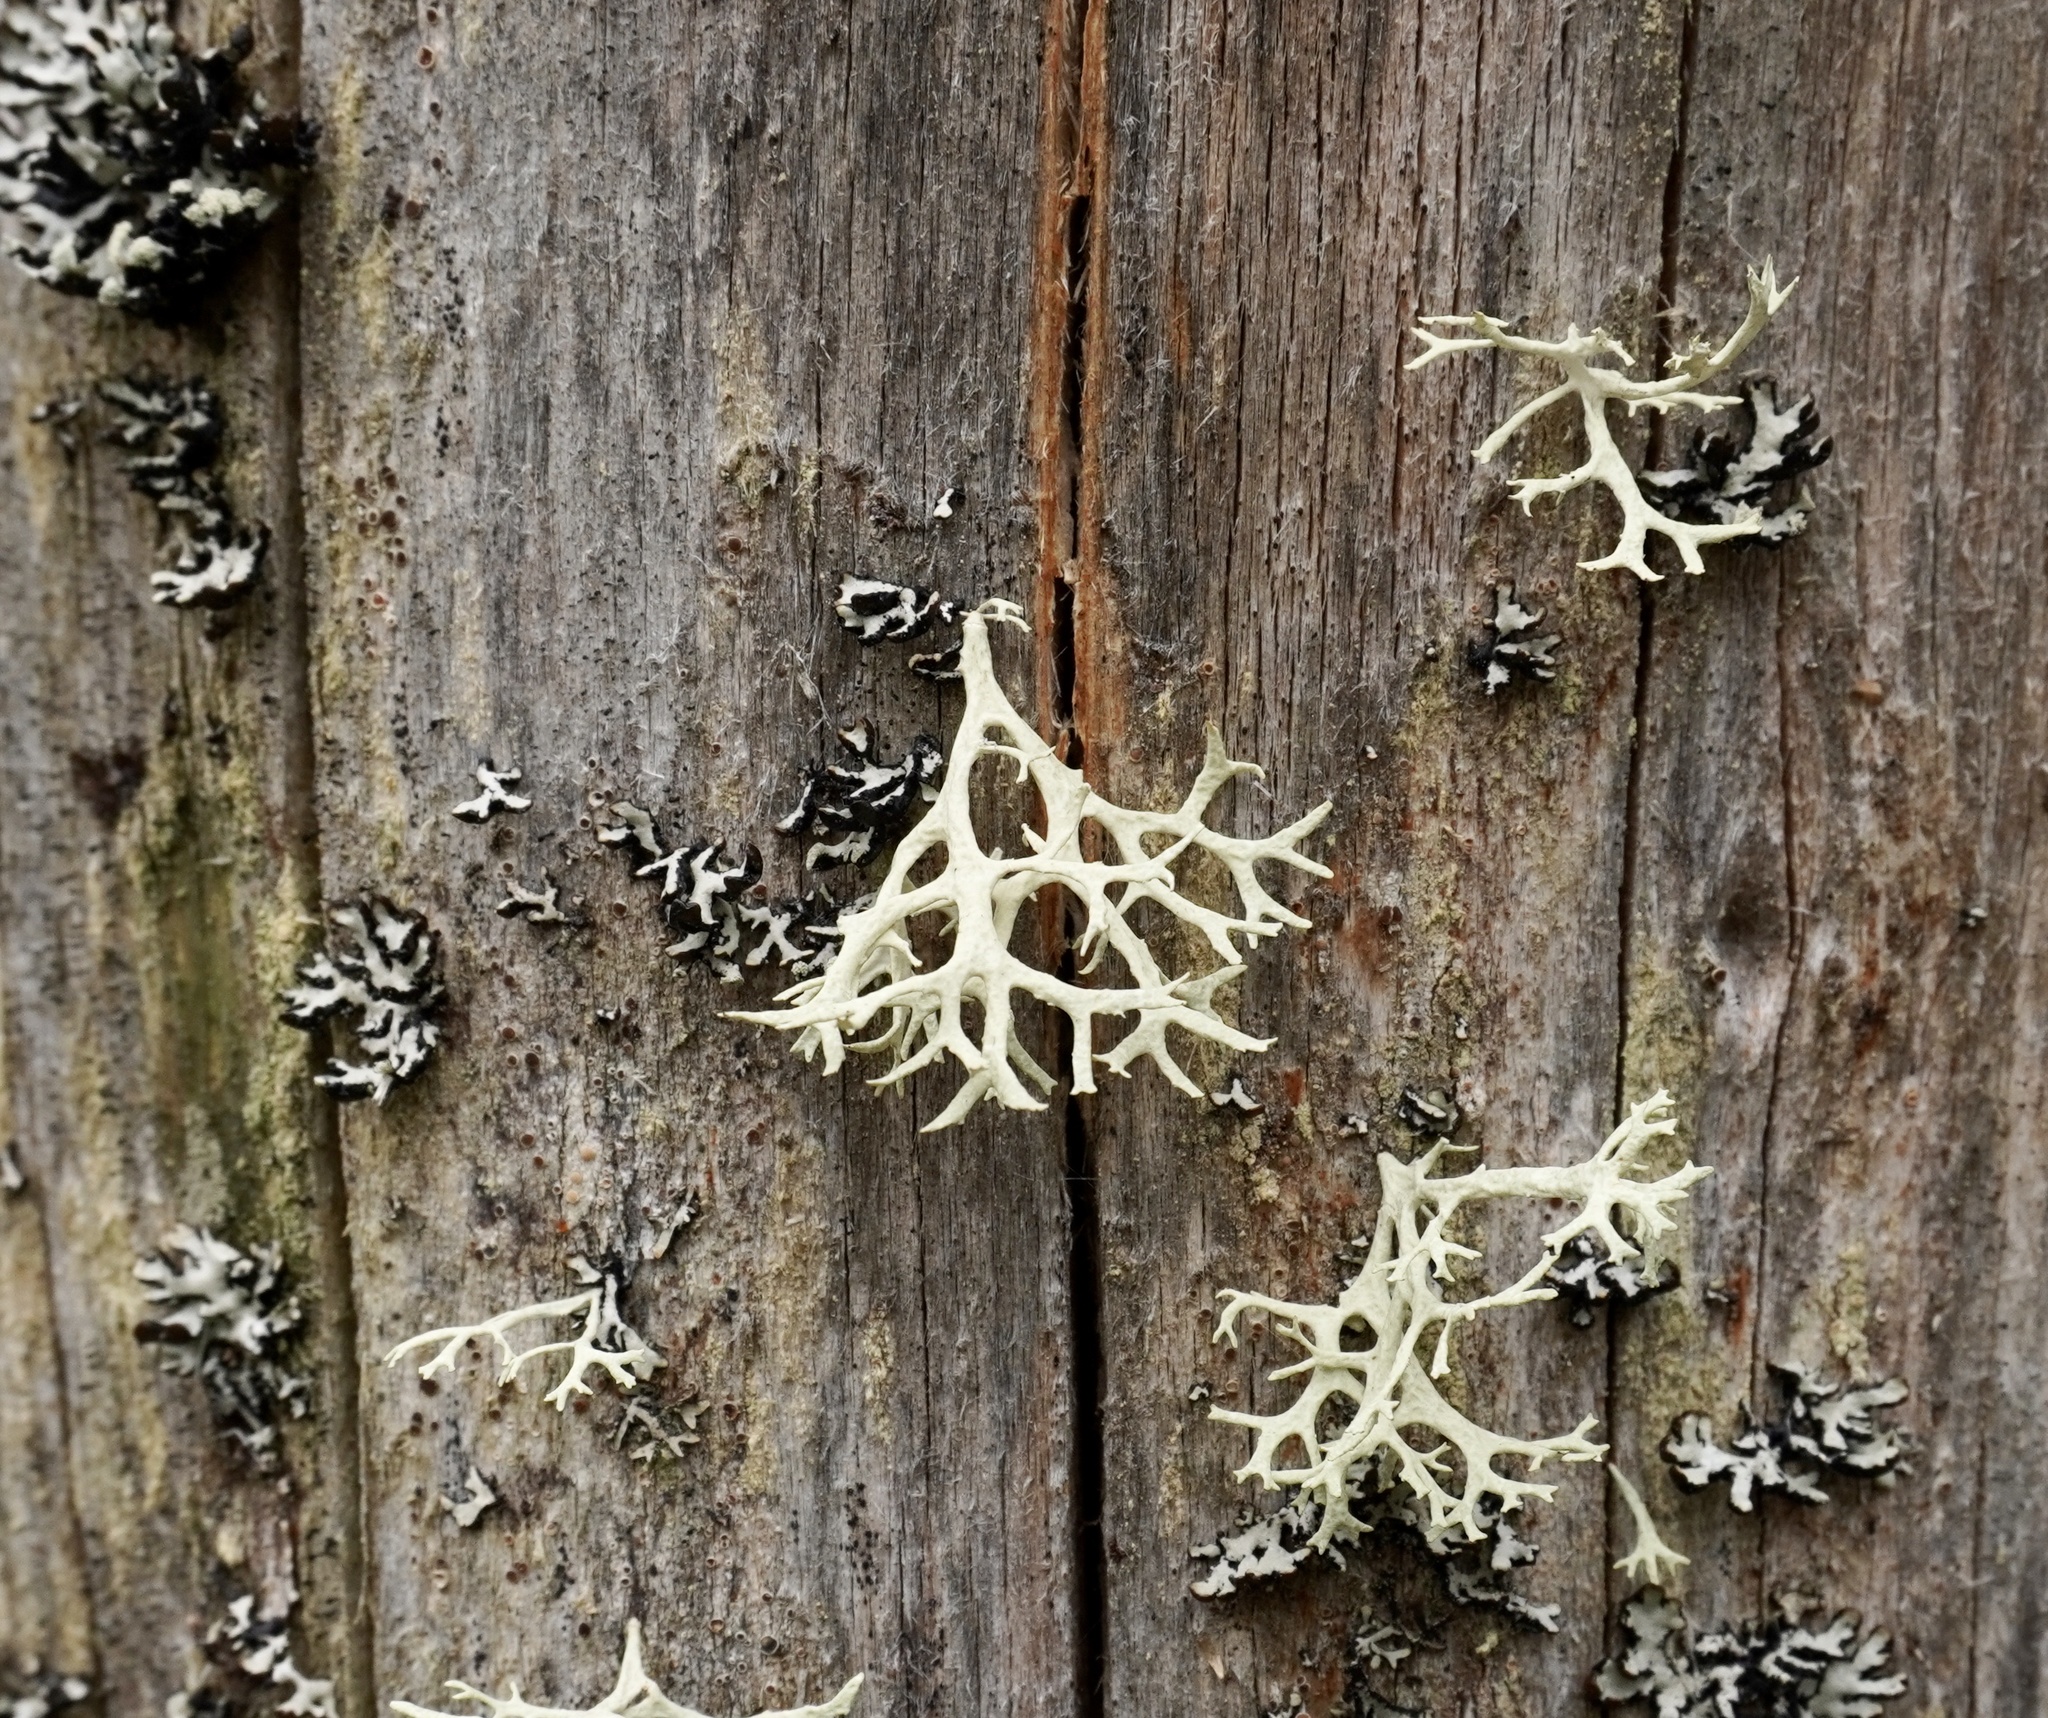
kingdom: Fungi
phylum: Ascomycota
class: Lecanoromycetes
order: Lecanorales
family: Parmeliaceae
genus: Evernia
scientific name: Evernia prunastri
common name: Oak moss
